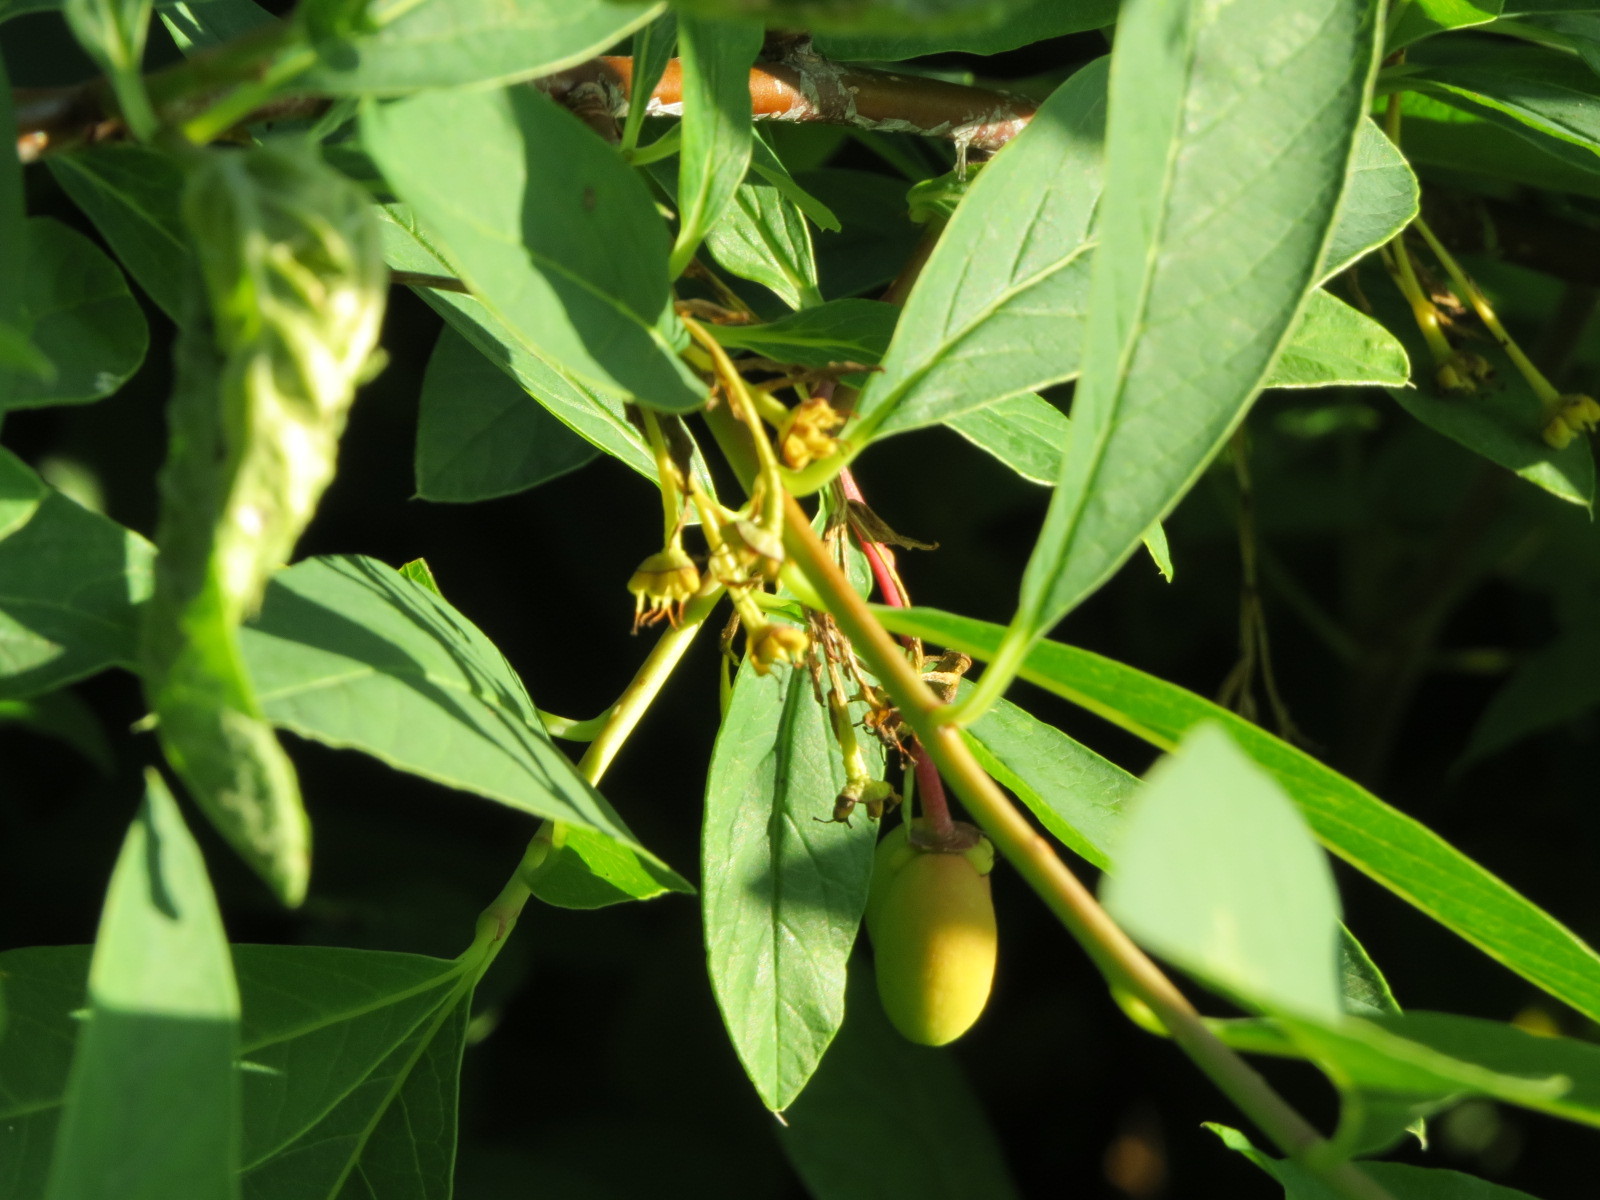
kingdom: Plantae
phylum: Tracheophyta
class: Magnoliopsida
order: Rosales
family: Rosaceae
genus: Oemleria
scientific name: Oemleria cerasiformis
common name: Osoberry
